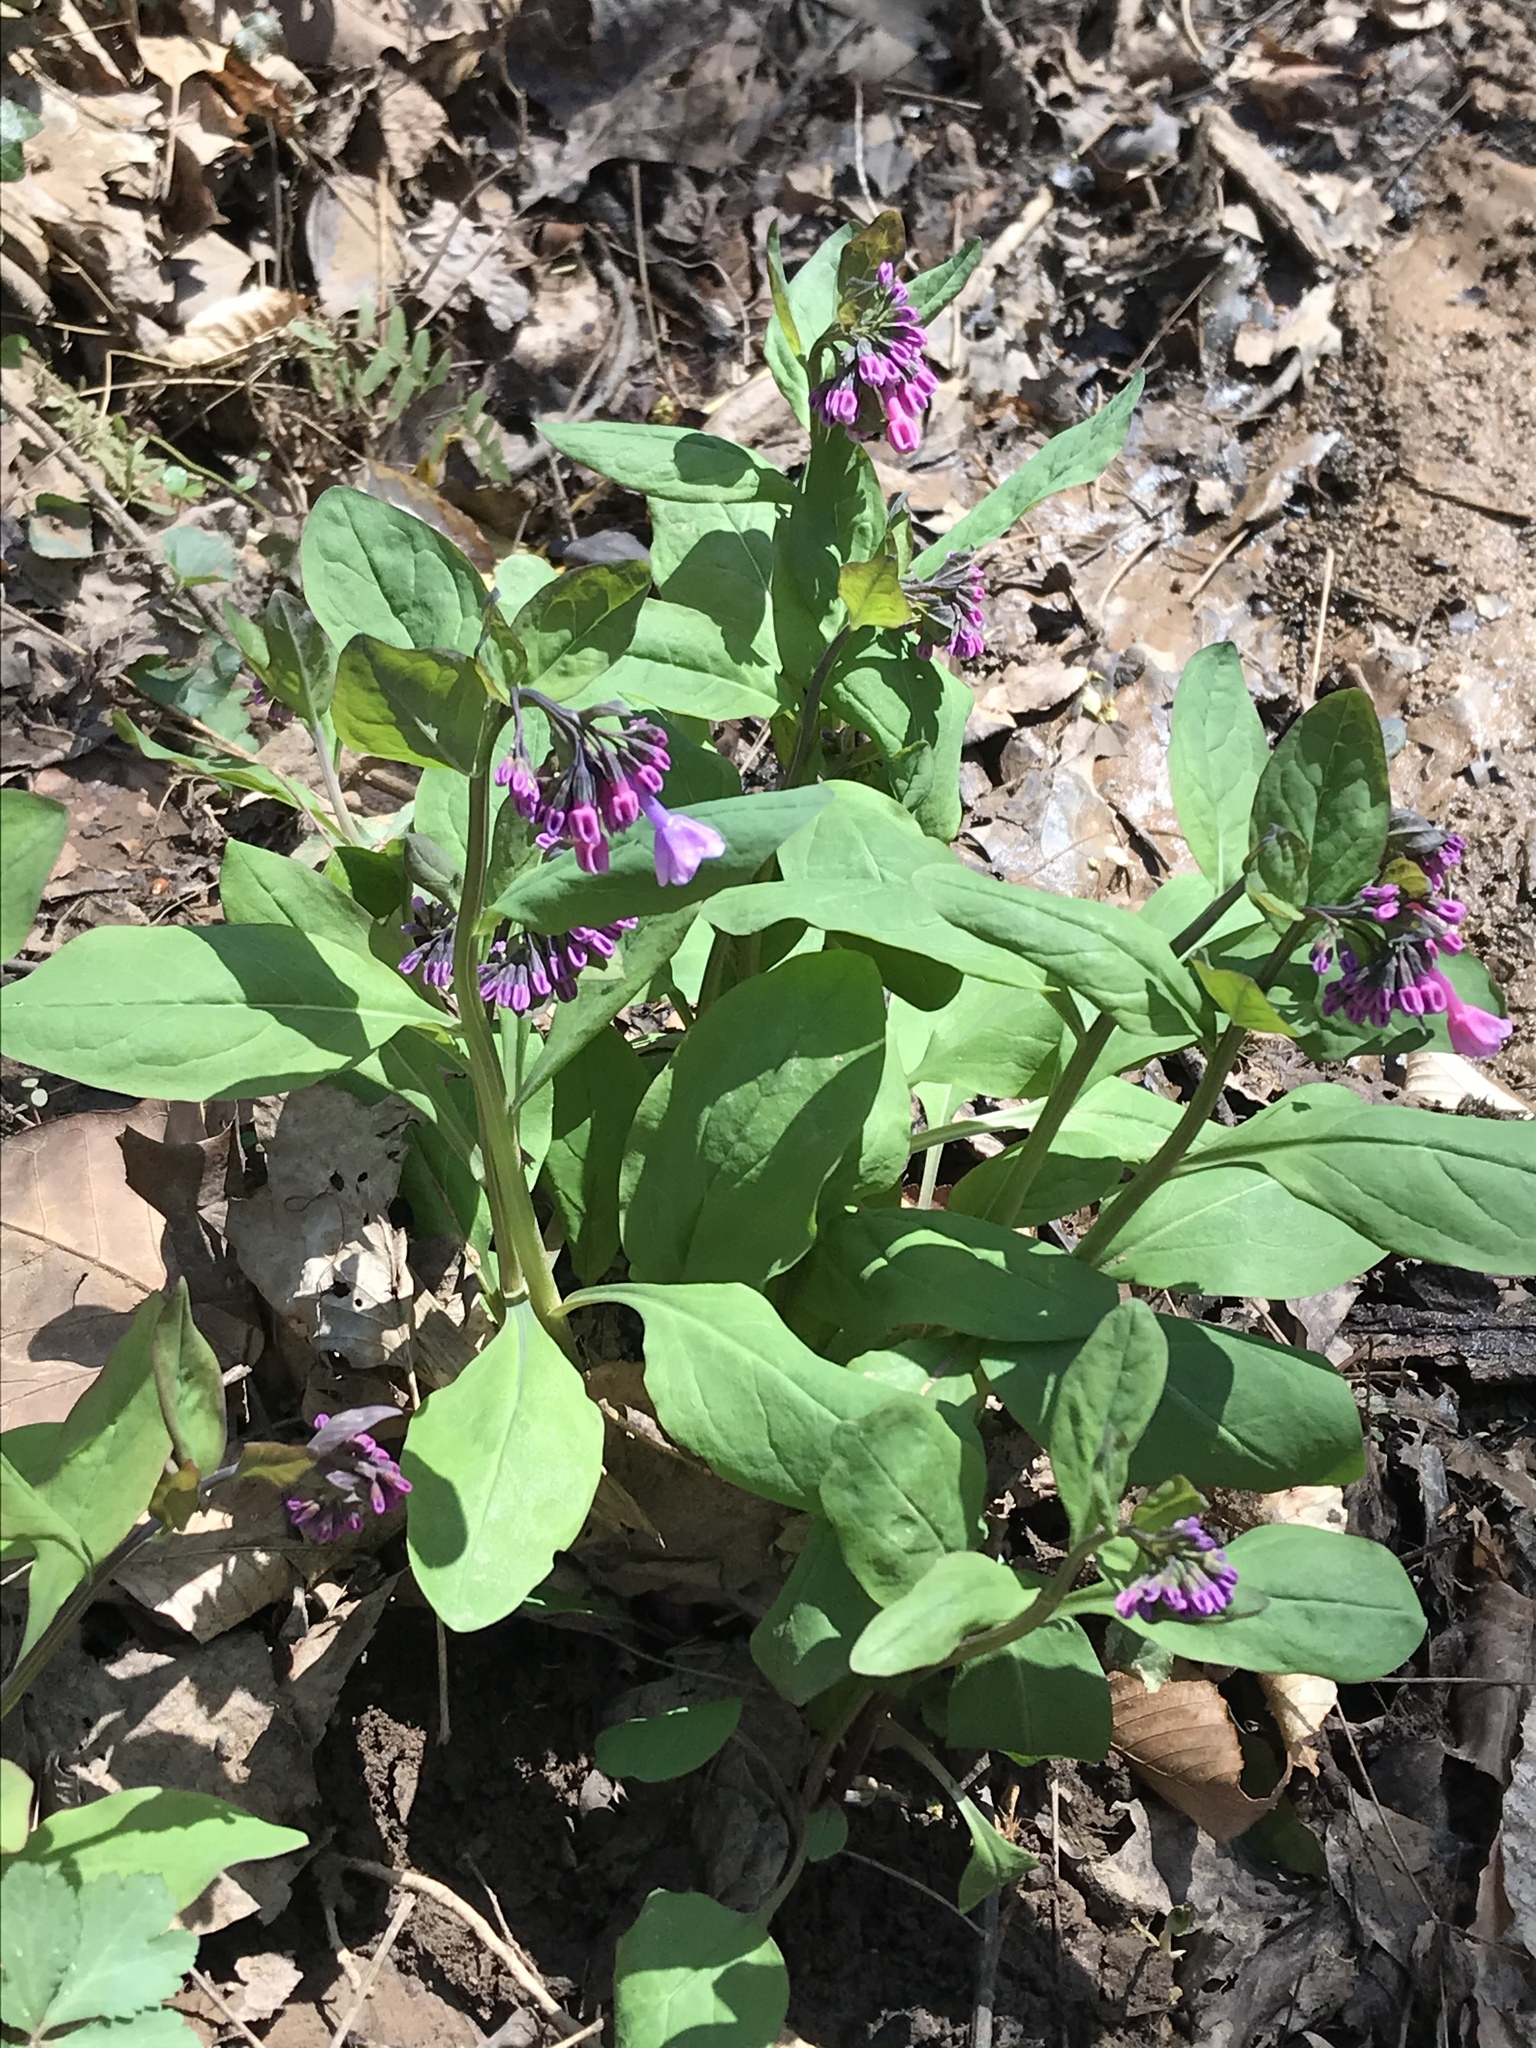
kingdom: Plantae
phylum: Tracheophyta
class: Magnoliopsida
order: Boraginales
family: Boraginaceae
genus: Mertensia
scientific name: Mertensia virginica
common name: Virginia bluebells
